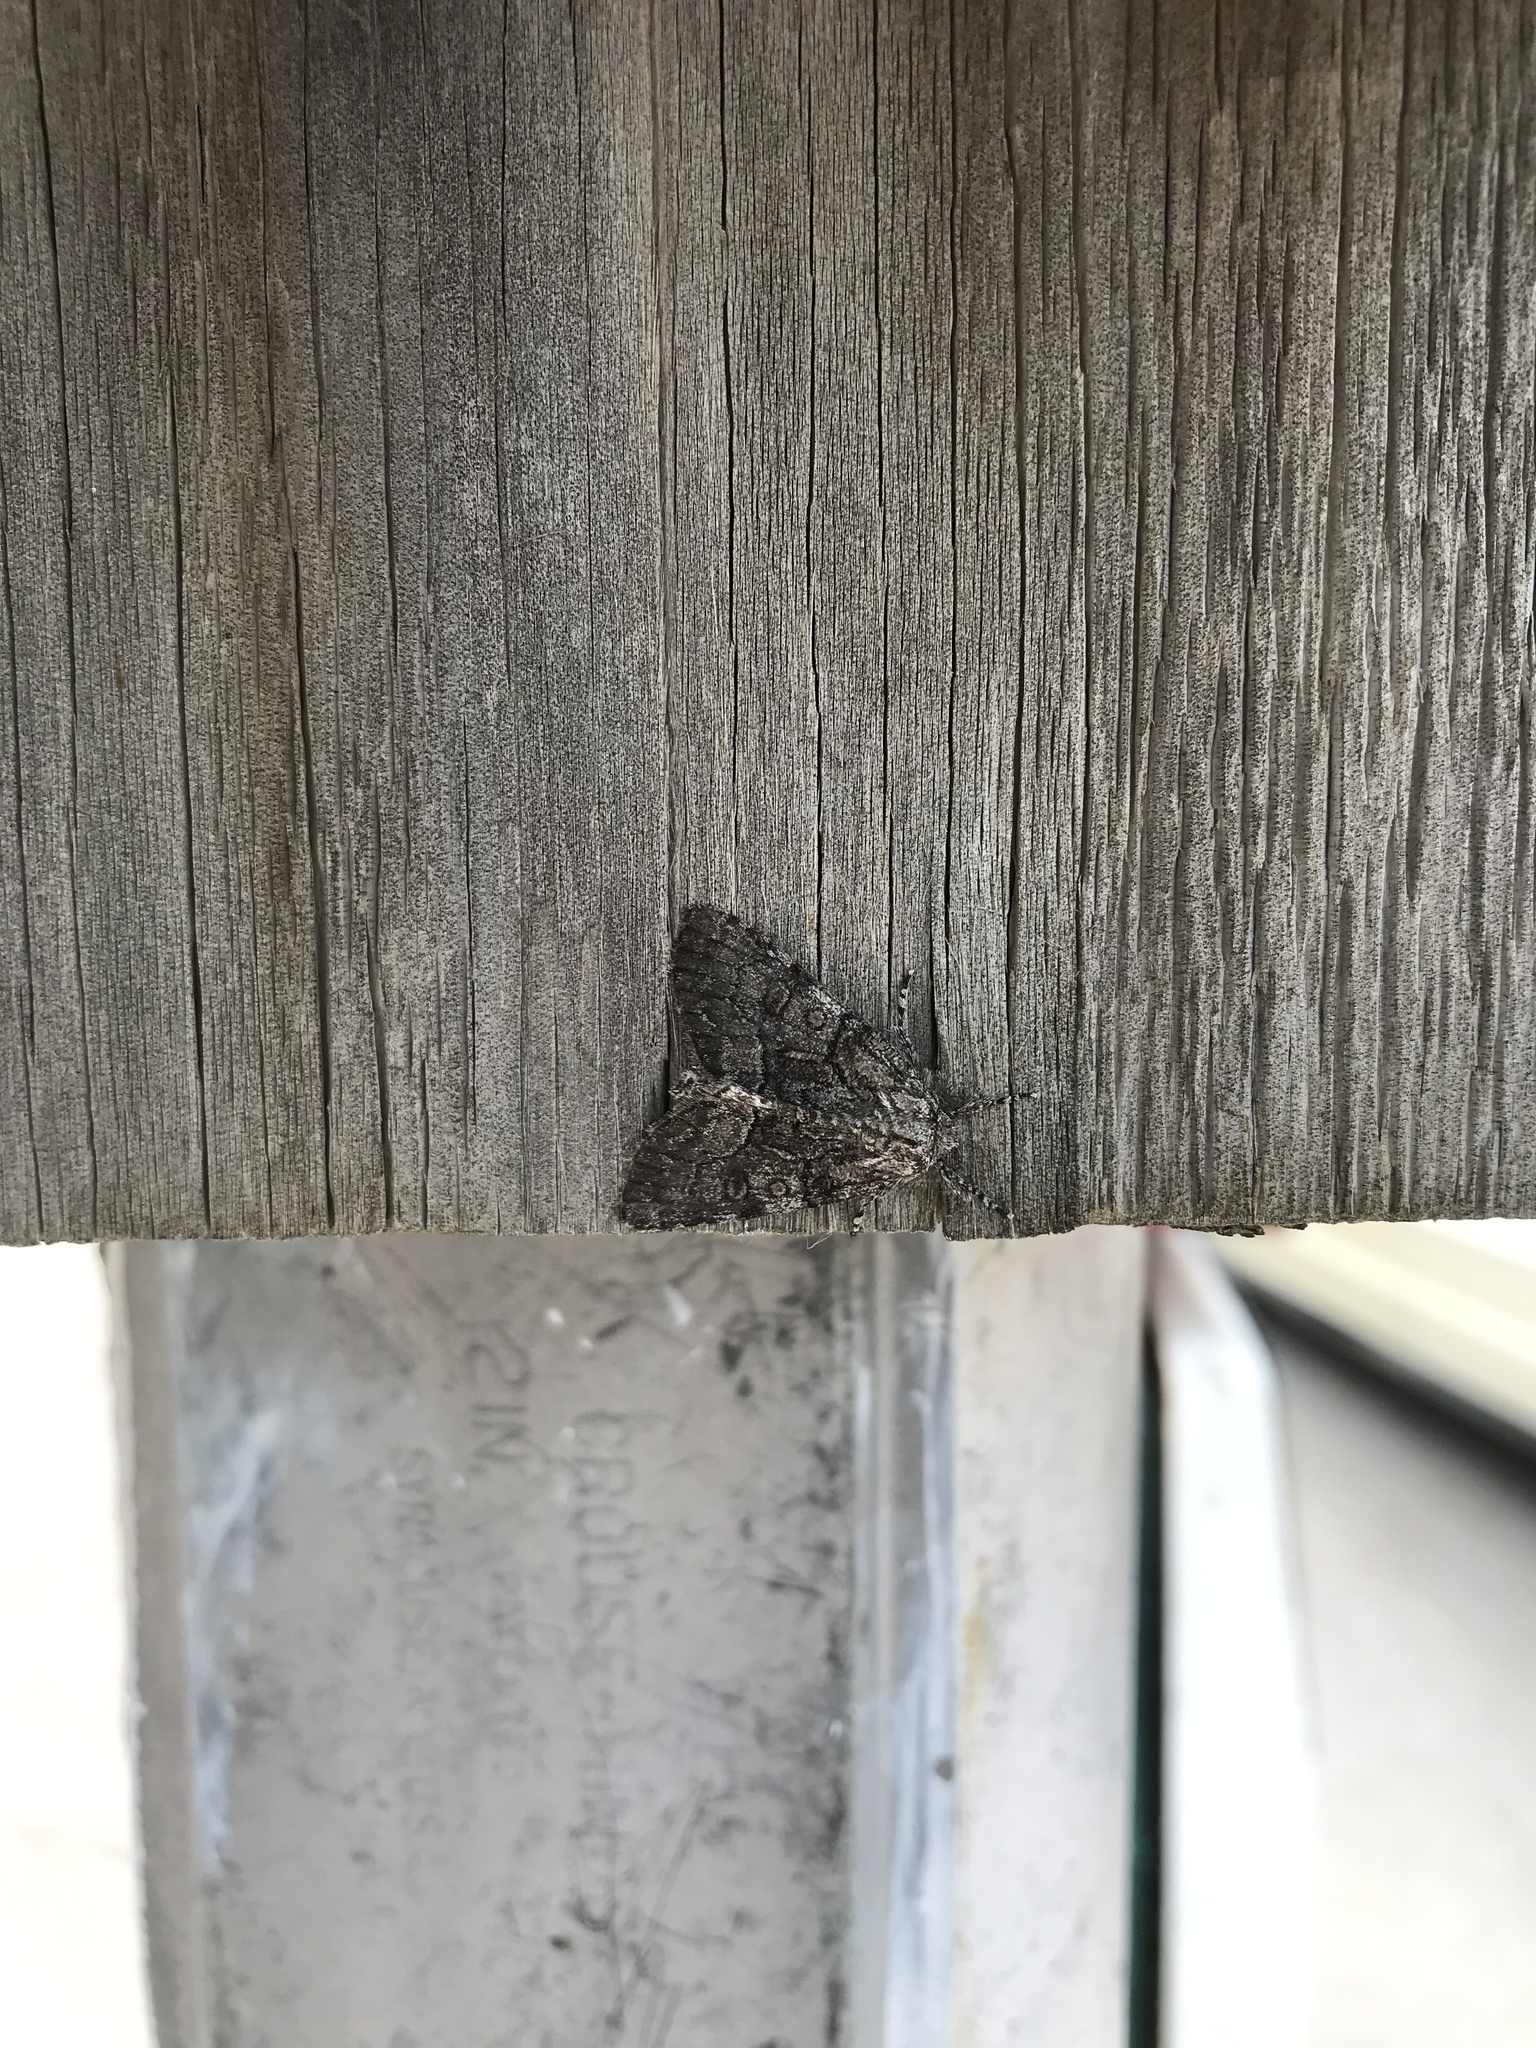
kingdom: Animalia
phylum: Arthropoda
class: Insecta
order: Lepidoptera
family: Noctuidae
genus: Raphia
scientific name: Raphia frater
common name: Brother
